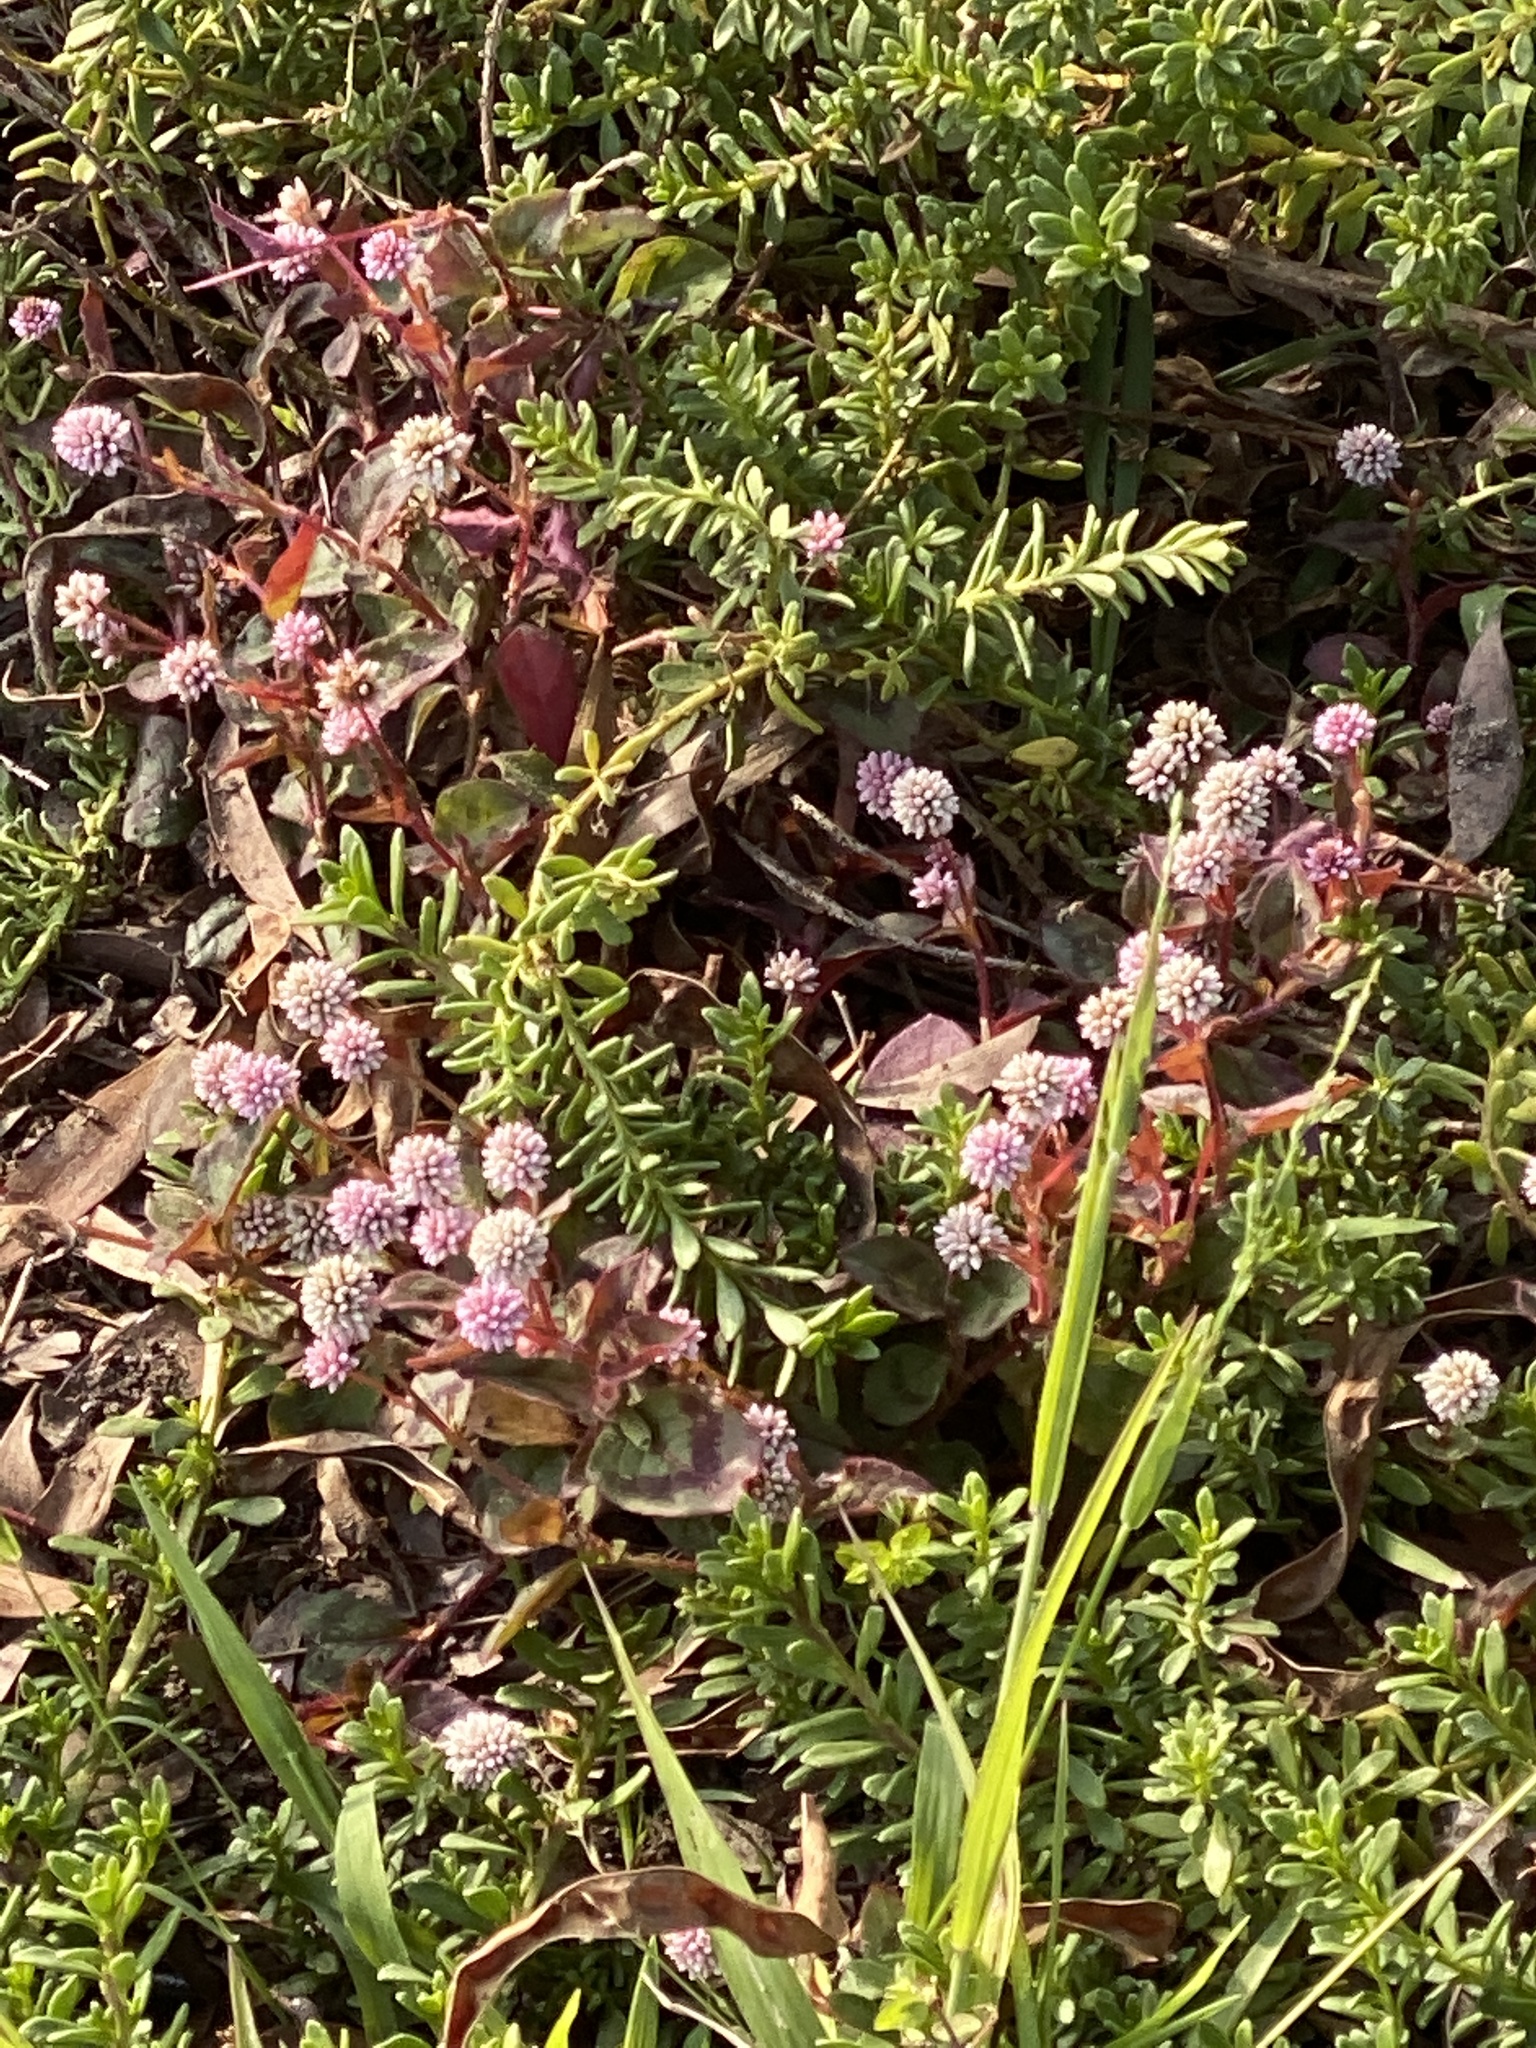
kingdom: Plantae
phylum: Tracheophyta
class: Magnoliopsida
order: Caryophyllales
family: Polygonaceae
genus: Persicaria
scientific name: Persicaria capitata
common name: Pinkhead smartweed
